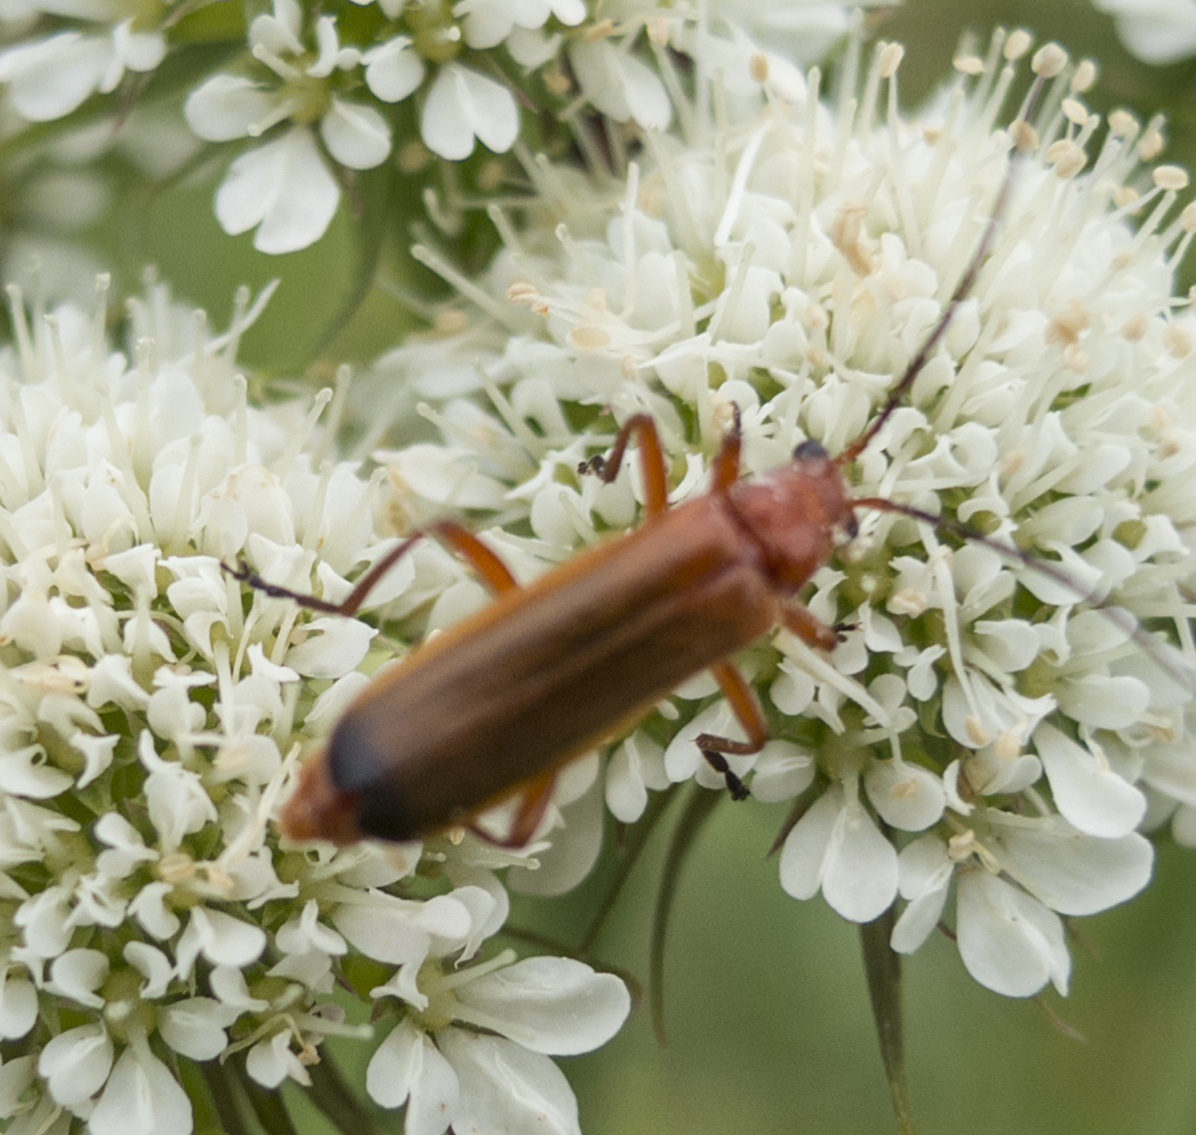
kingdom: Animalia
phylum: Arthropoda
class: Insecta
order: Coleoptera
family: Cantharidae
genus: Rhagonycha
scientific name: Rhagonycha fulva
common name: Common red soldier beetle
